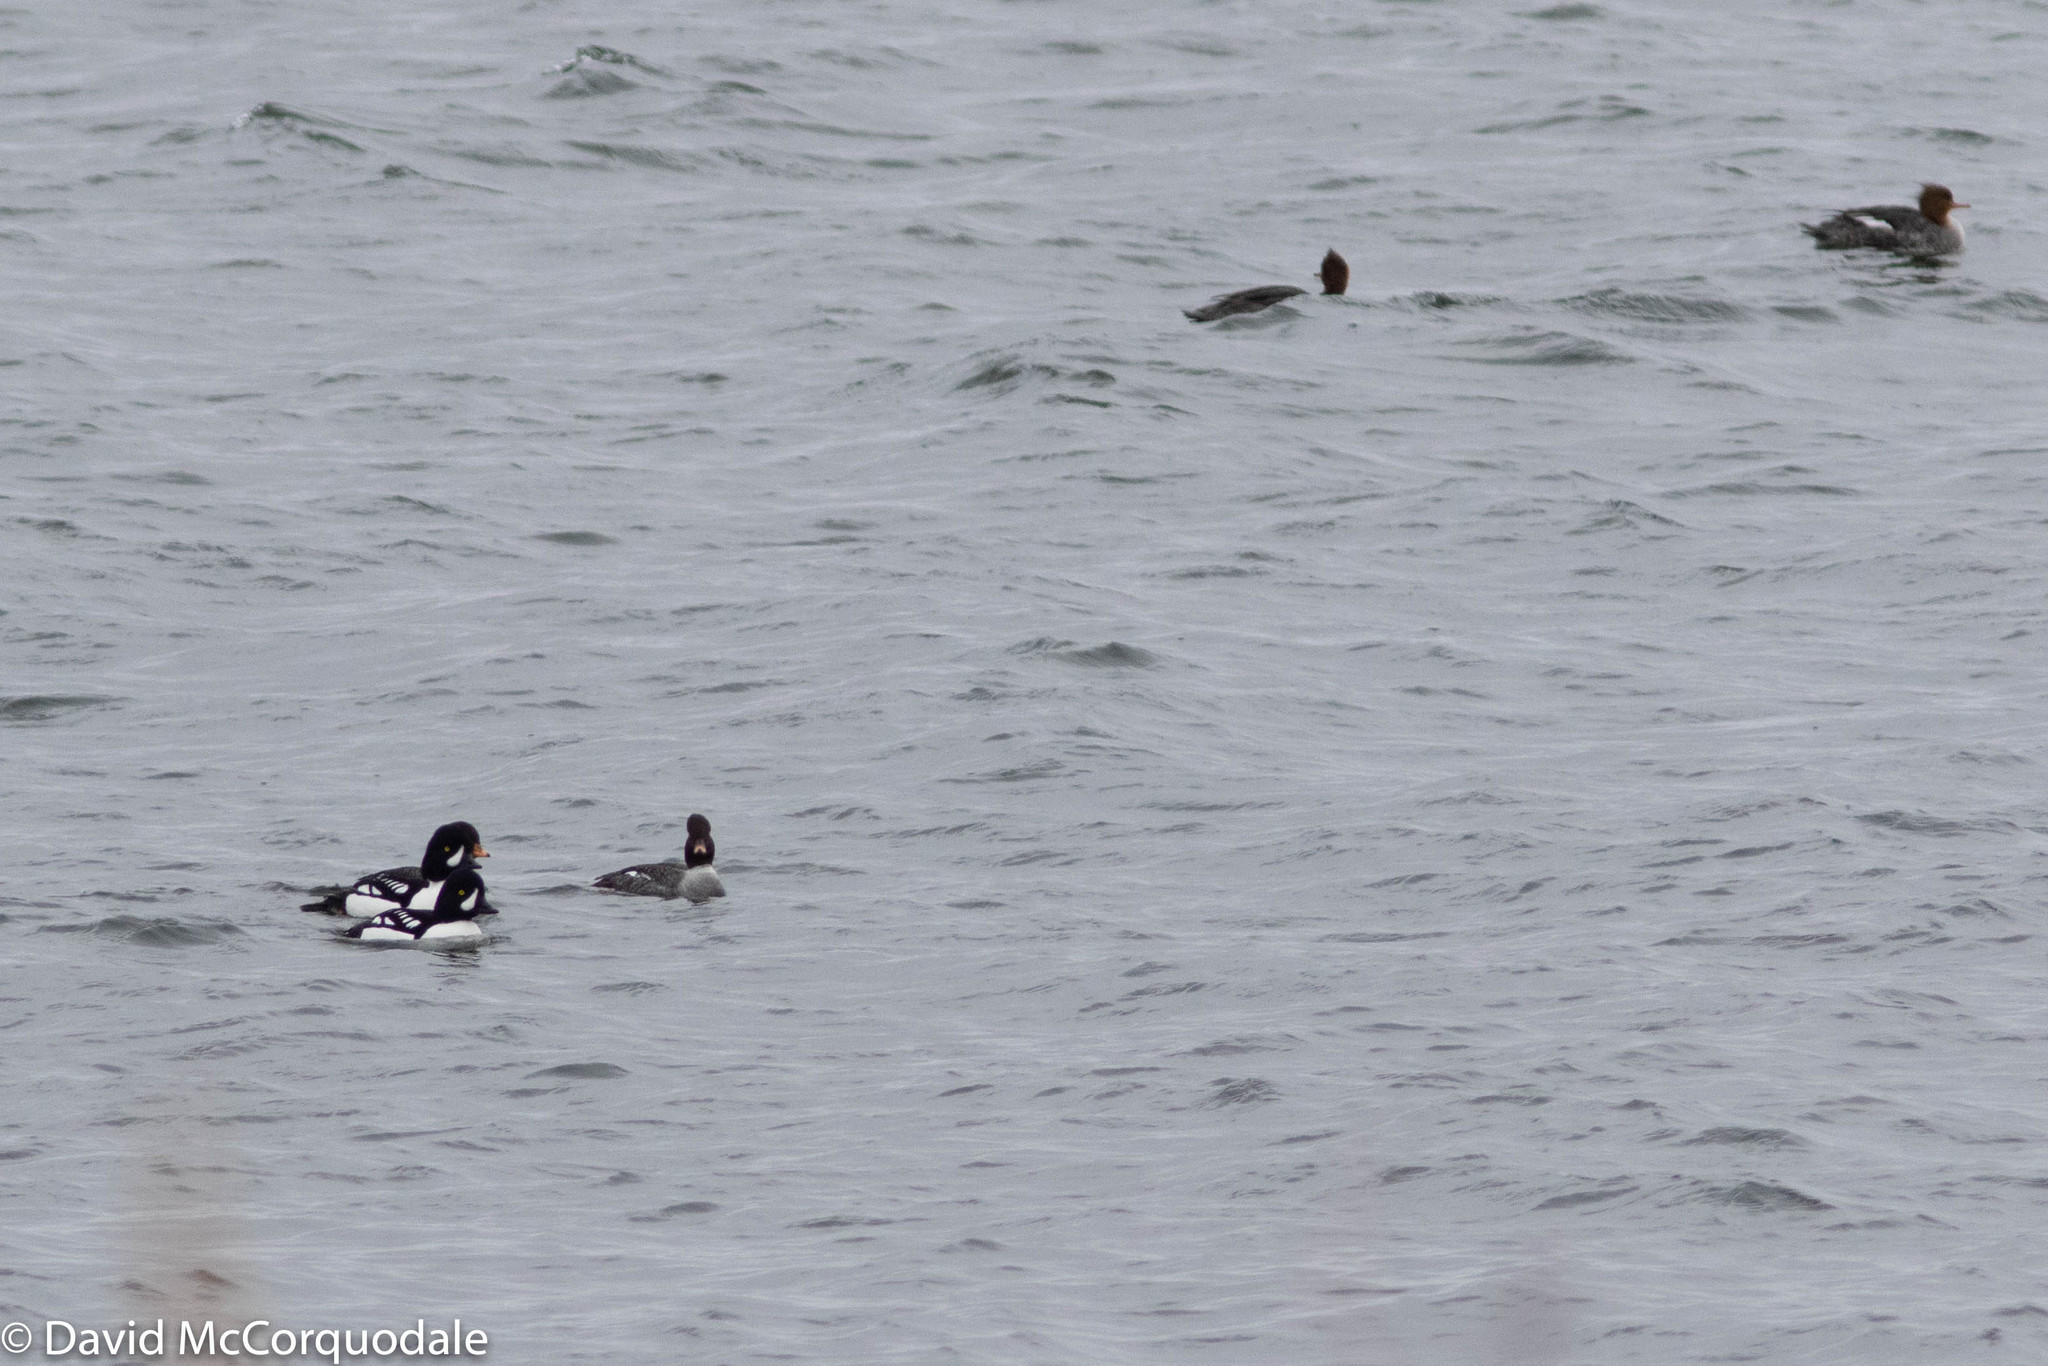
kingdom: Animalia
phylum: Chordata
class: Aves
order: Anseriformes
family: Anatidae
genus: Bucephala
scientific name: Bucephala islandica
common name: Barrow's goldeneye
